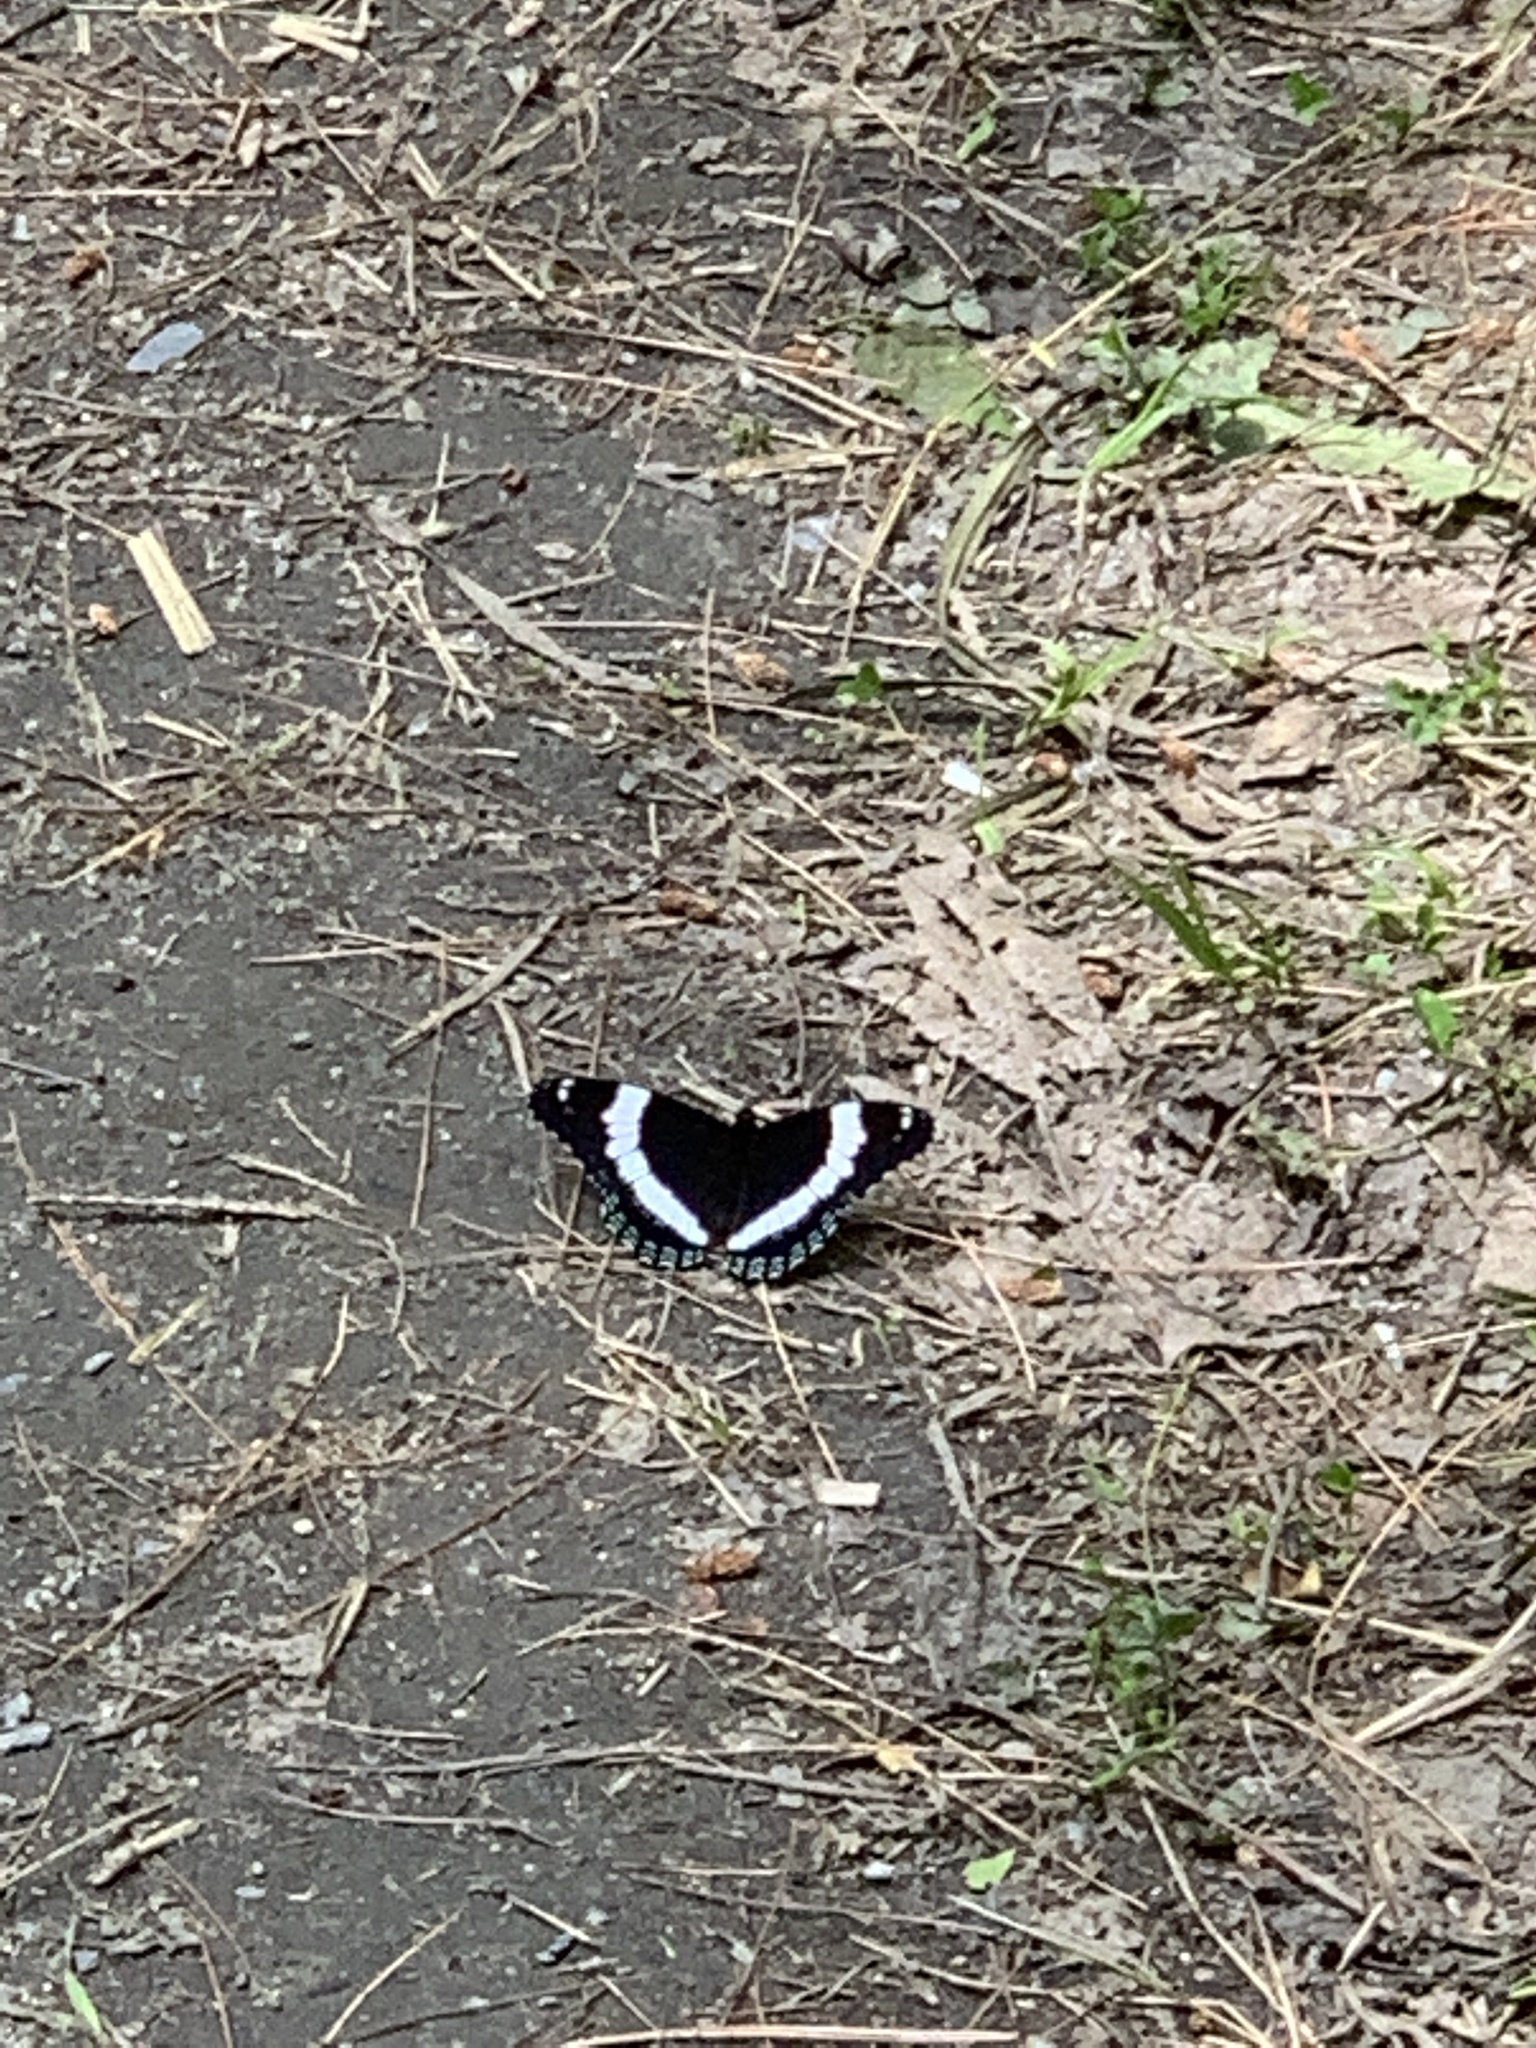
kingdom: Animalia
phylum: Arthropoda
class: Insecta
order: Lepidoptera
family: Nymphalidae
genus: Limenitis
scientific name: Limenitis arthemis
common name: Red-spotted admiral
